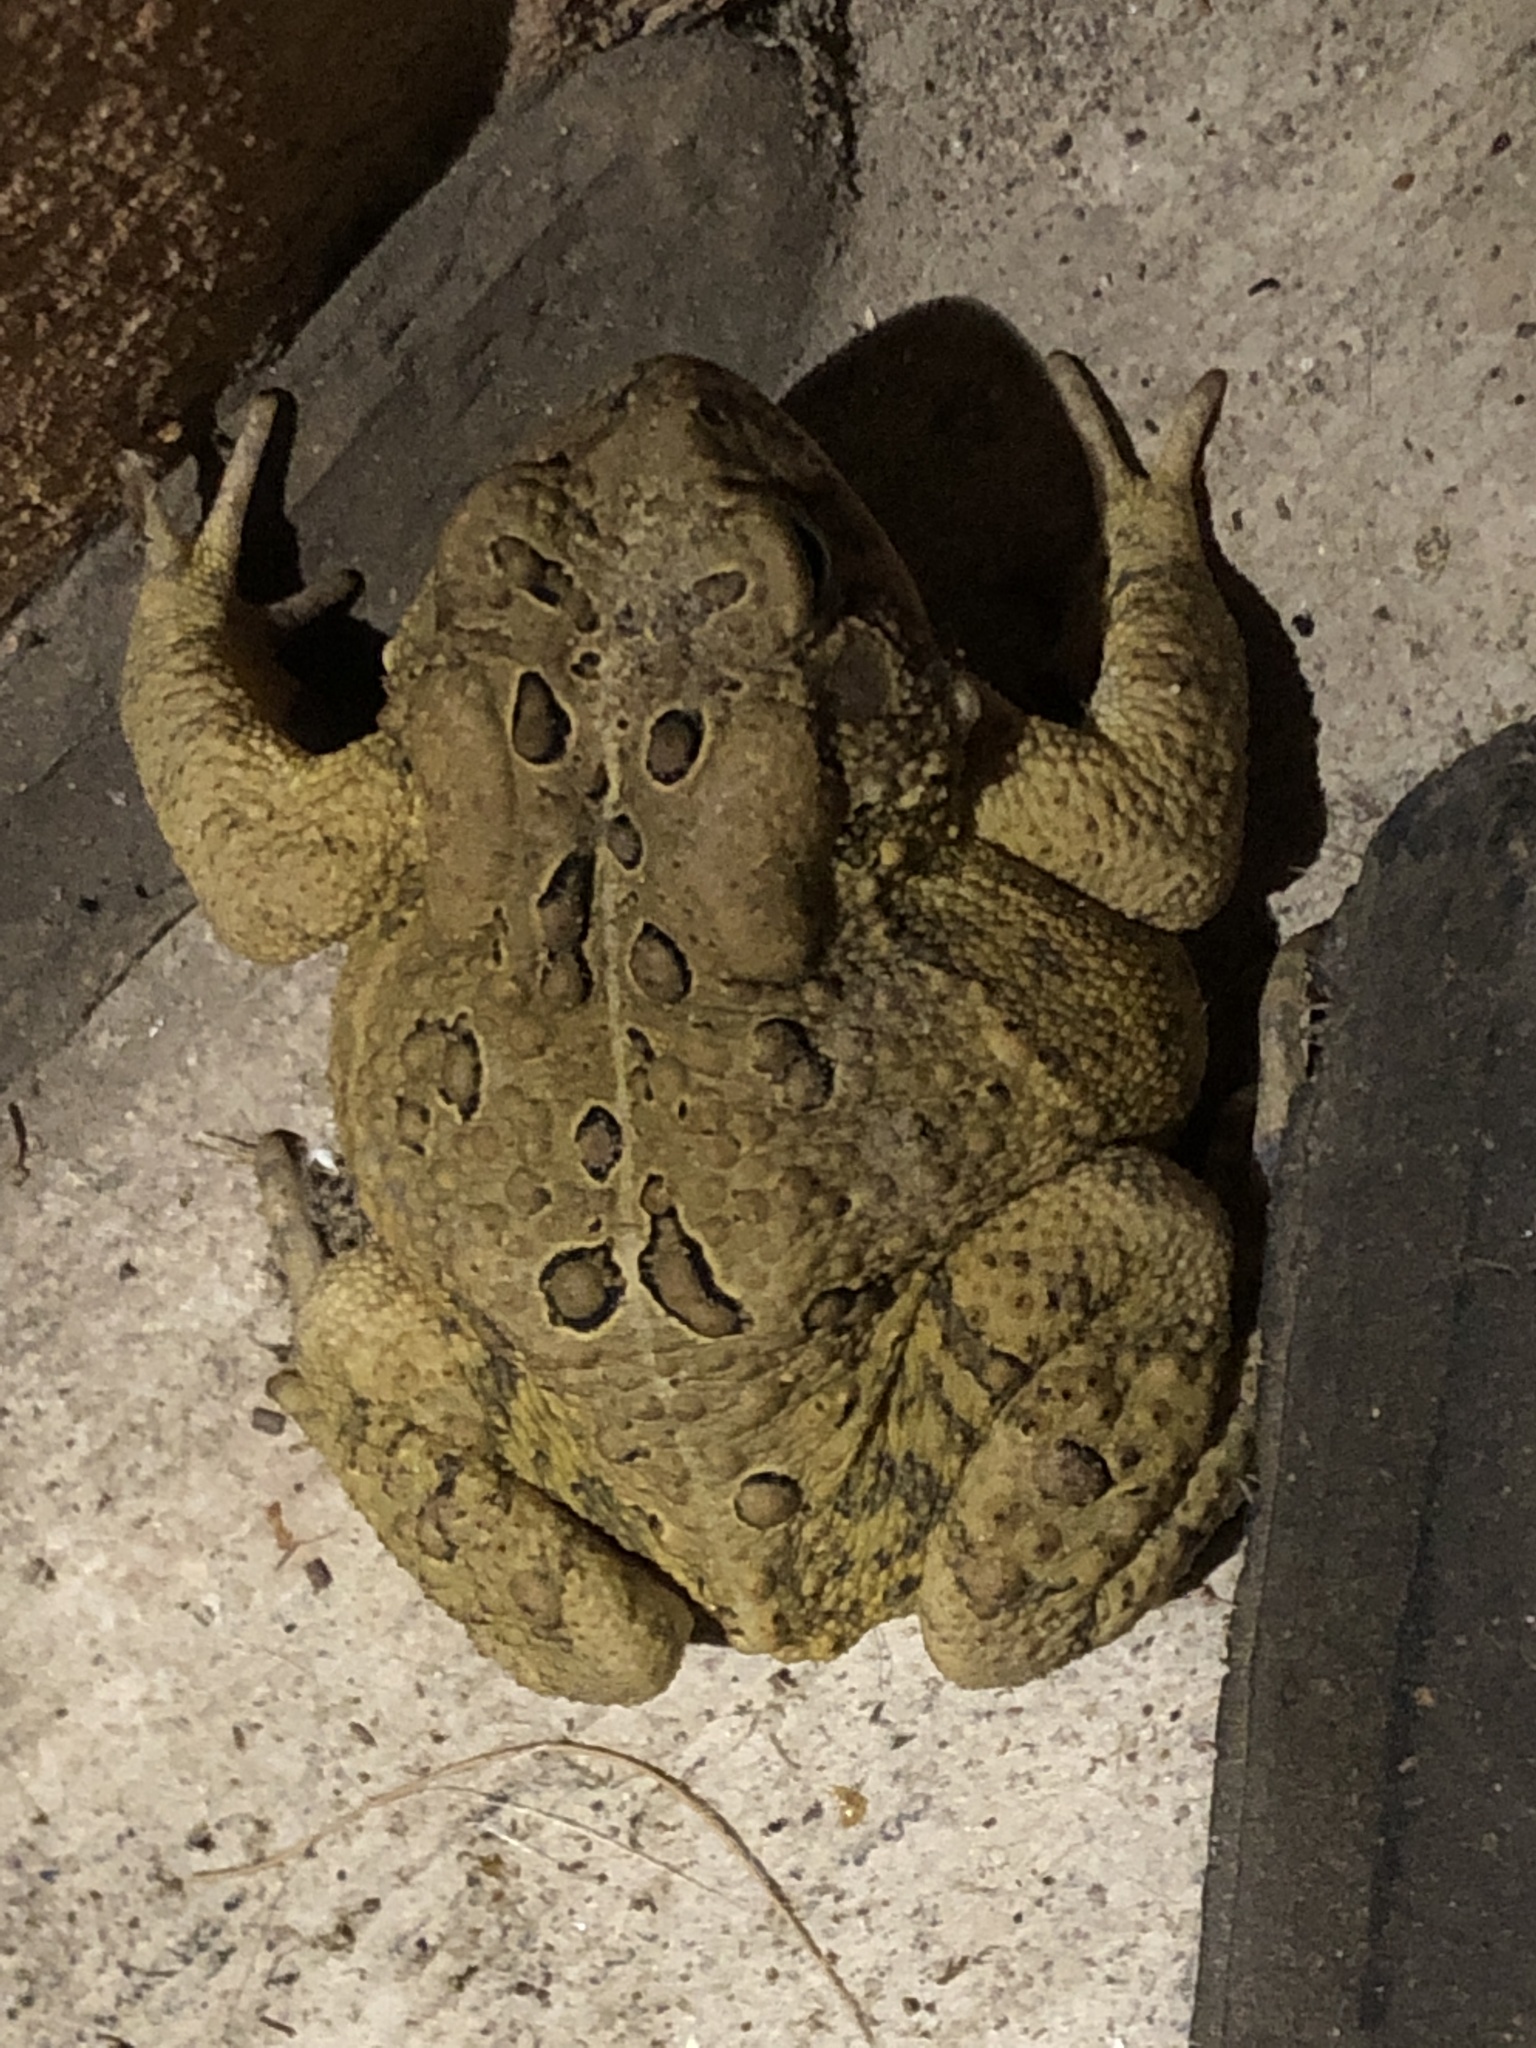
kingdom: Animalia
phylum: Chordata
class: Amphibia
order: Anura
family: Bufonidae
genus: Anaxyrus
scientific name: Anaxyrus americanus
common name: American toad
